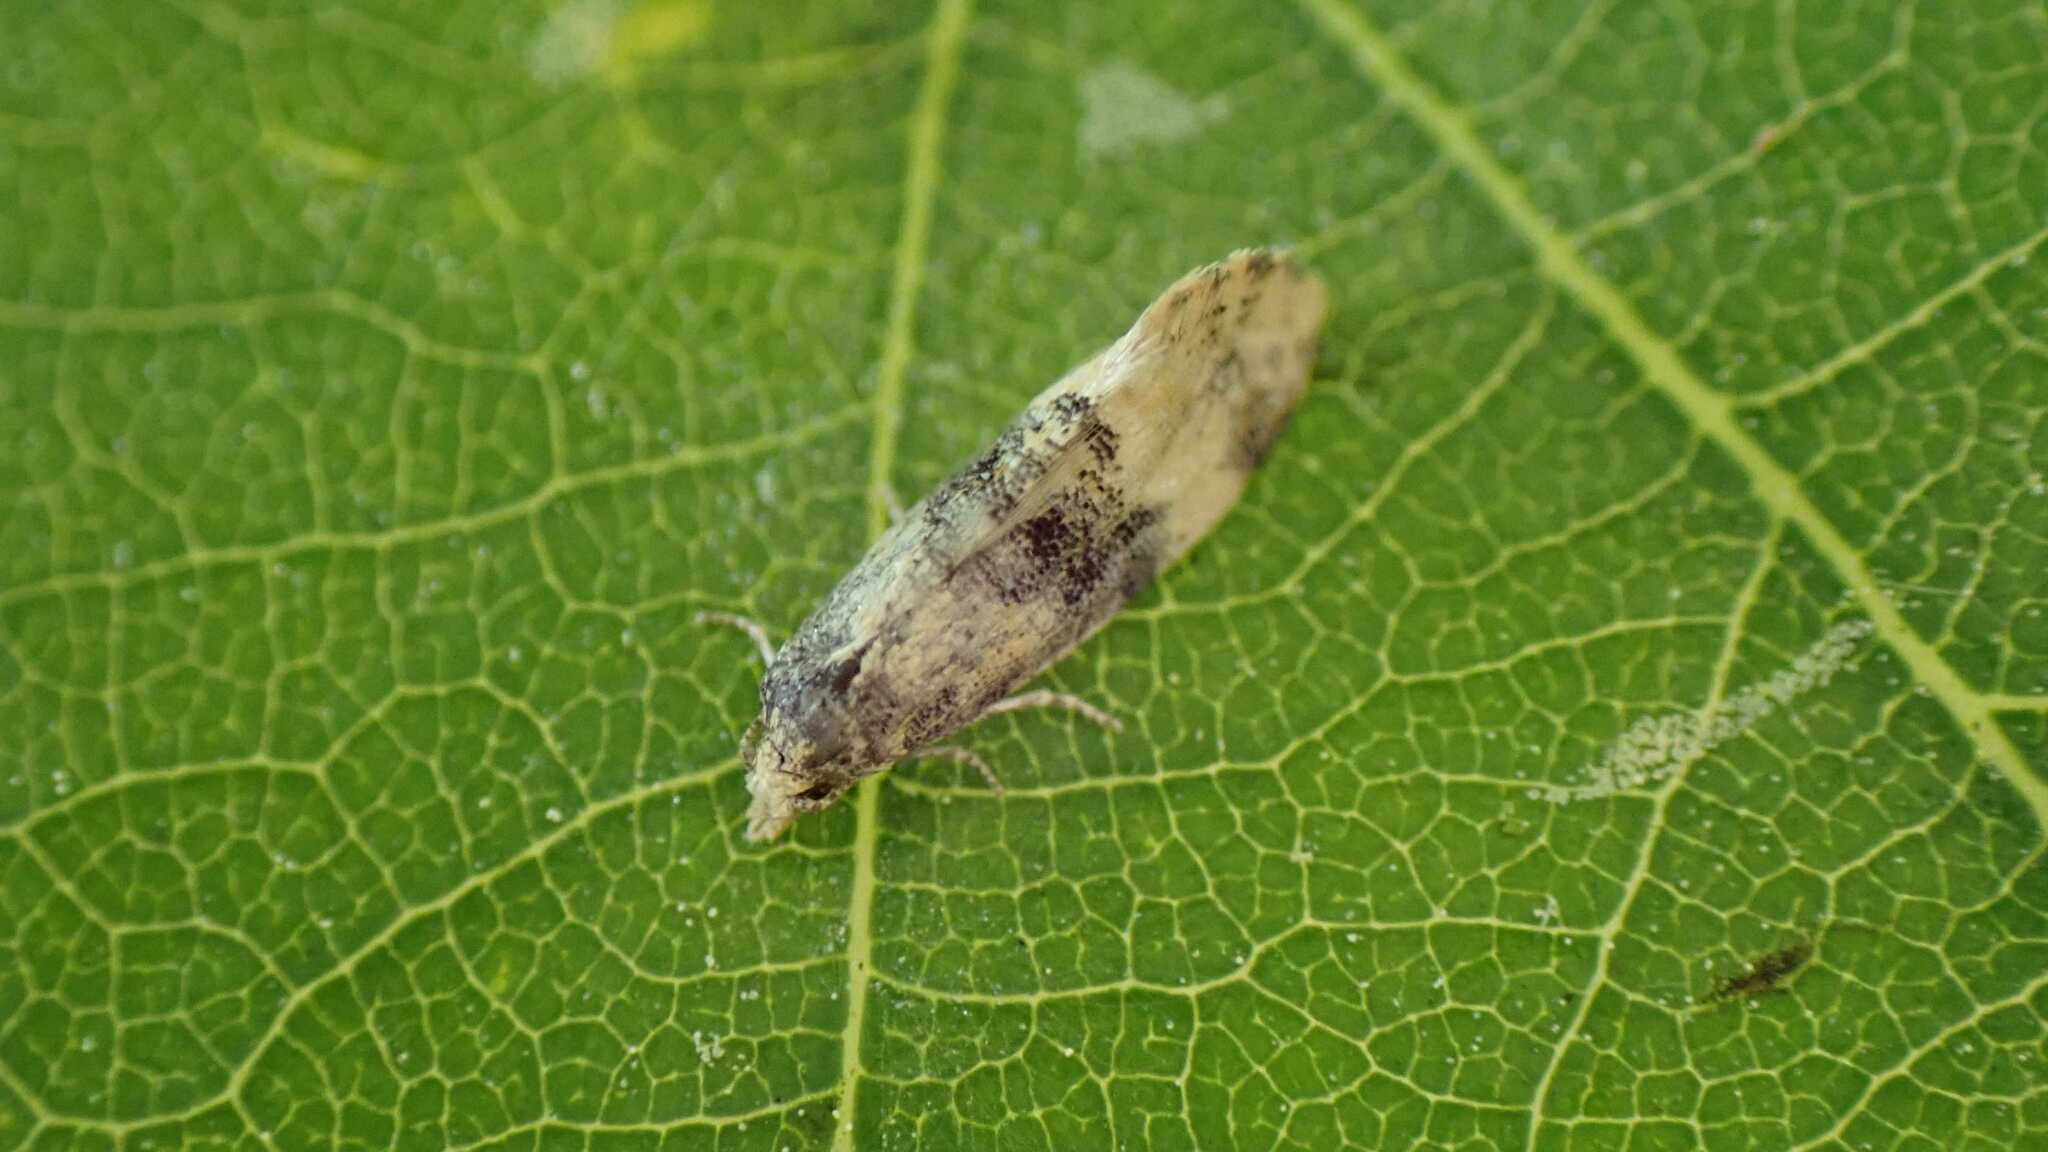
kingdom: Animalia
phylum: Arthropoda
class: Insecta
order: Lepidoptera
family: Tortricidae
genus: Thyraylia
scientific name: Thyraylia nana
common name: Birch conch
